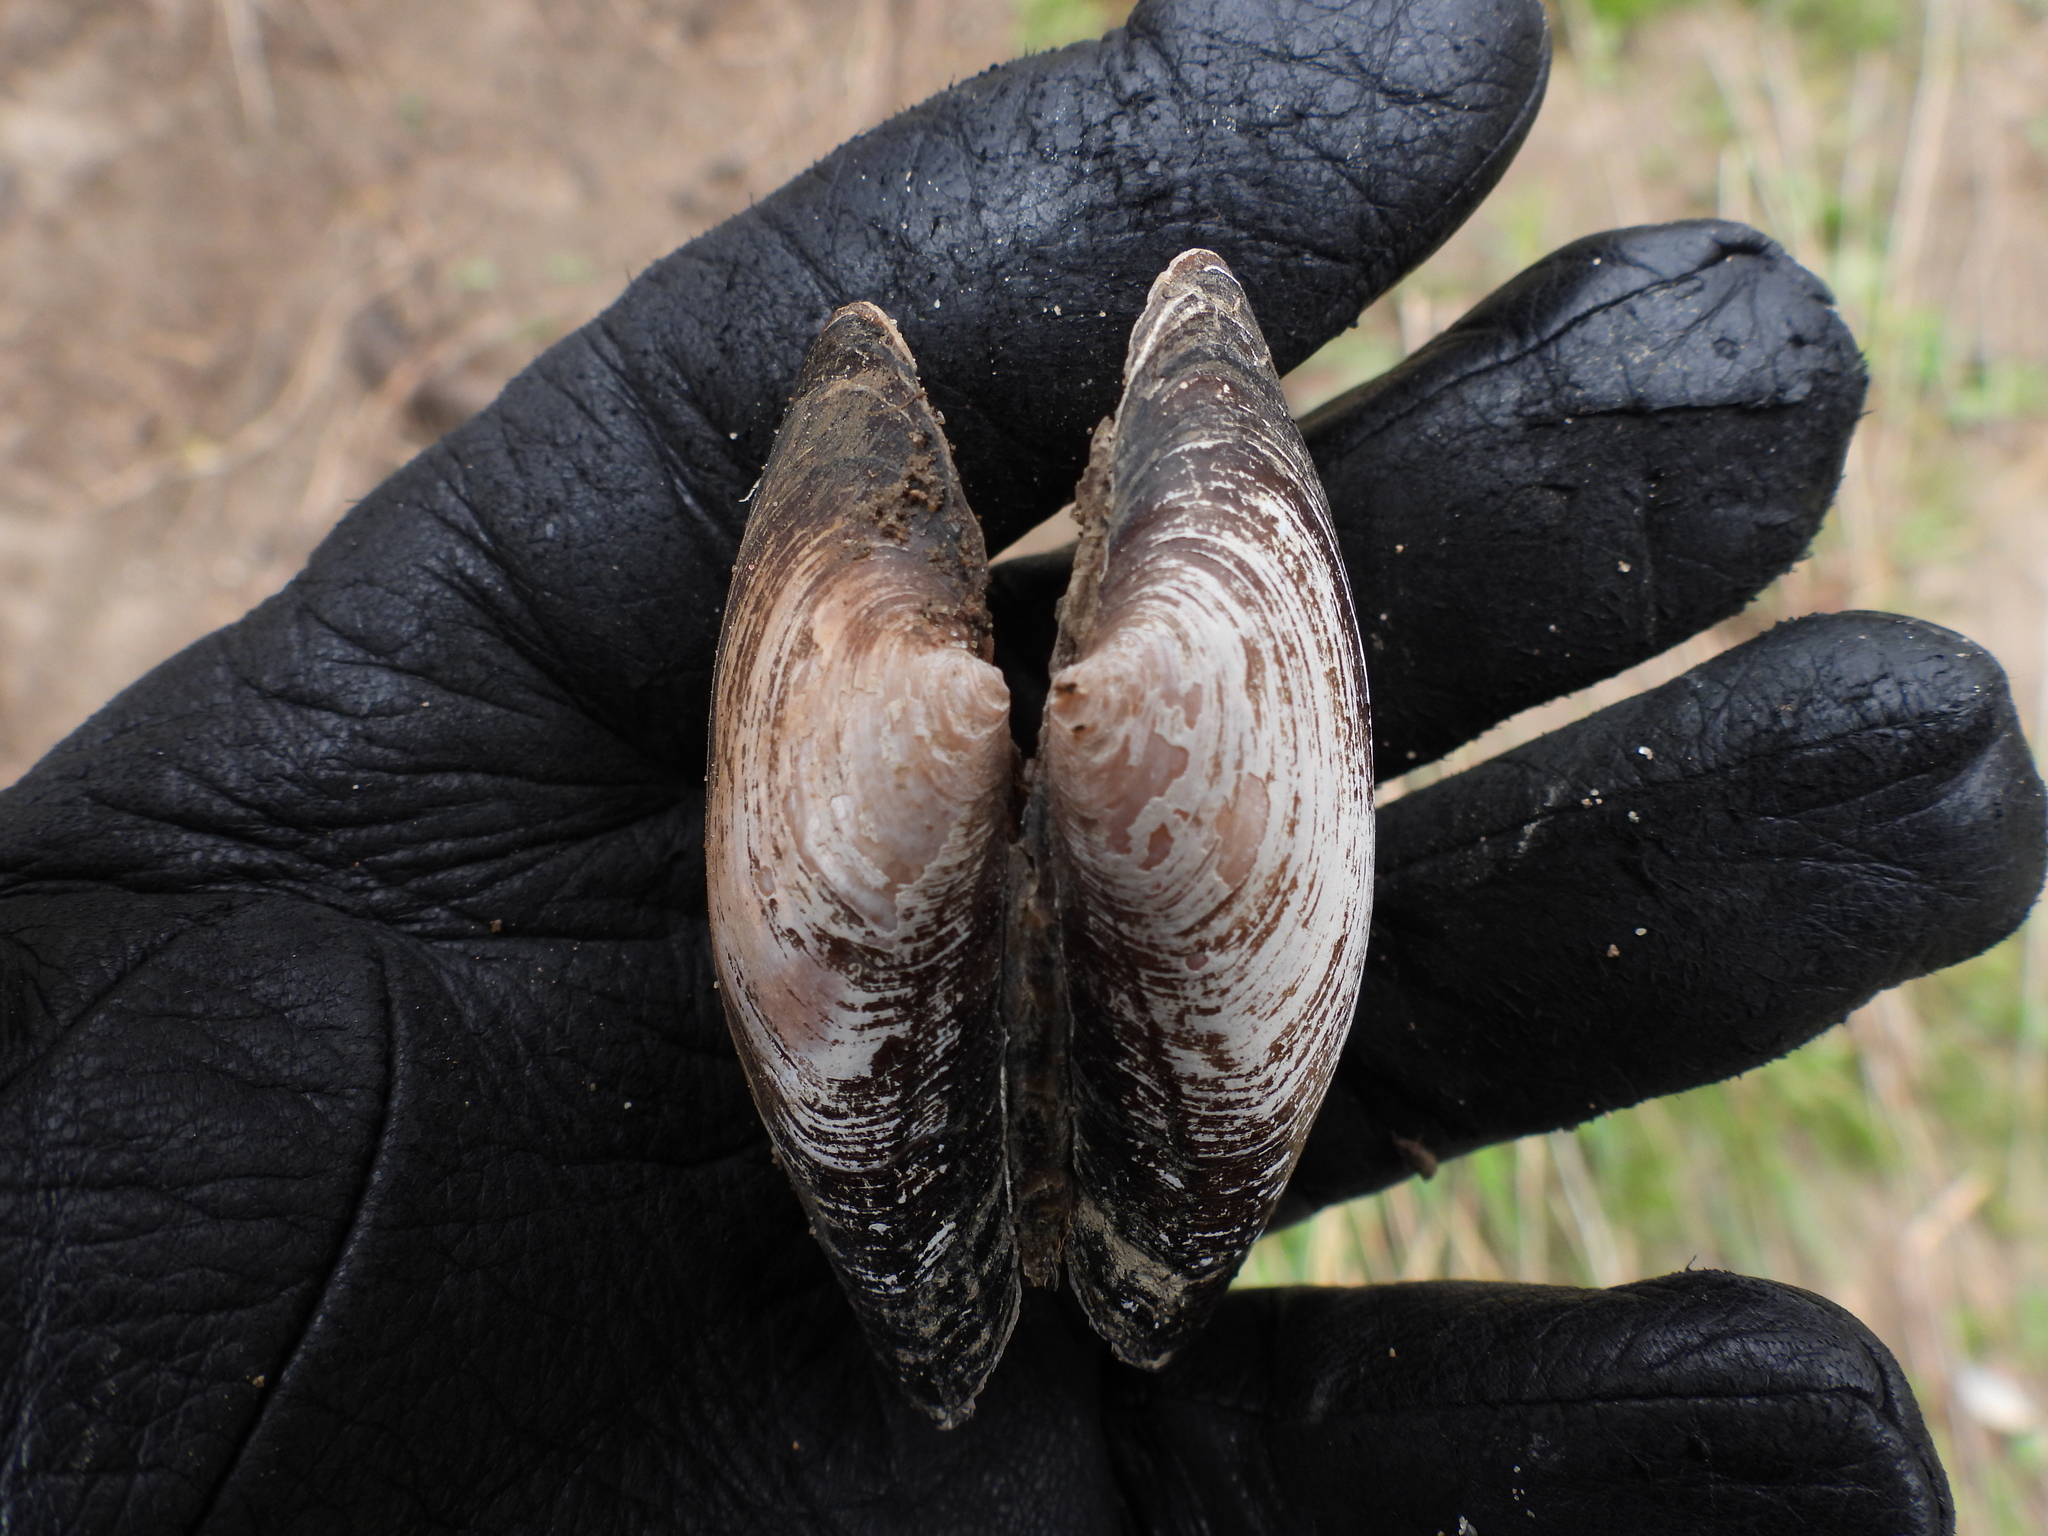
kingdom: Animalia
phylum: Mollusca
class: Bivalvia
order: Unionida
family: Unionidae
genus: Strophitus
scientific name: Strophitus undulatus
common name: Creeper
